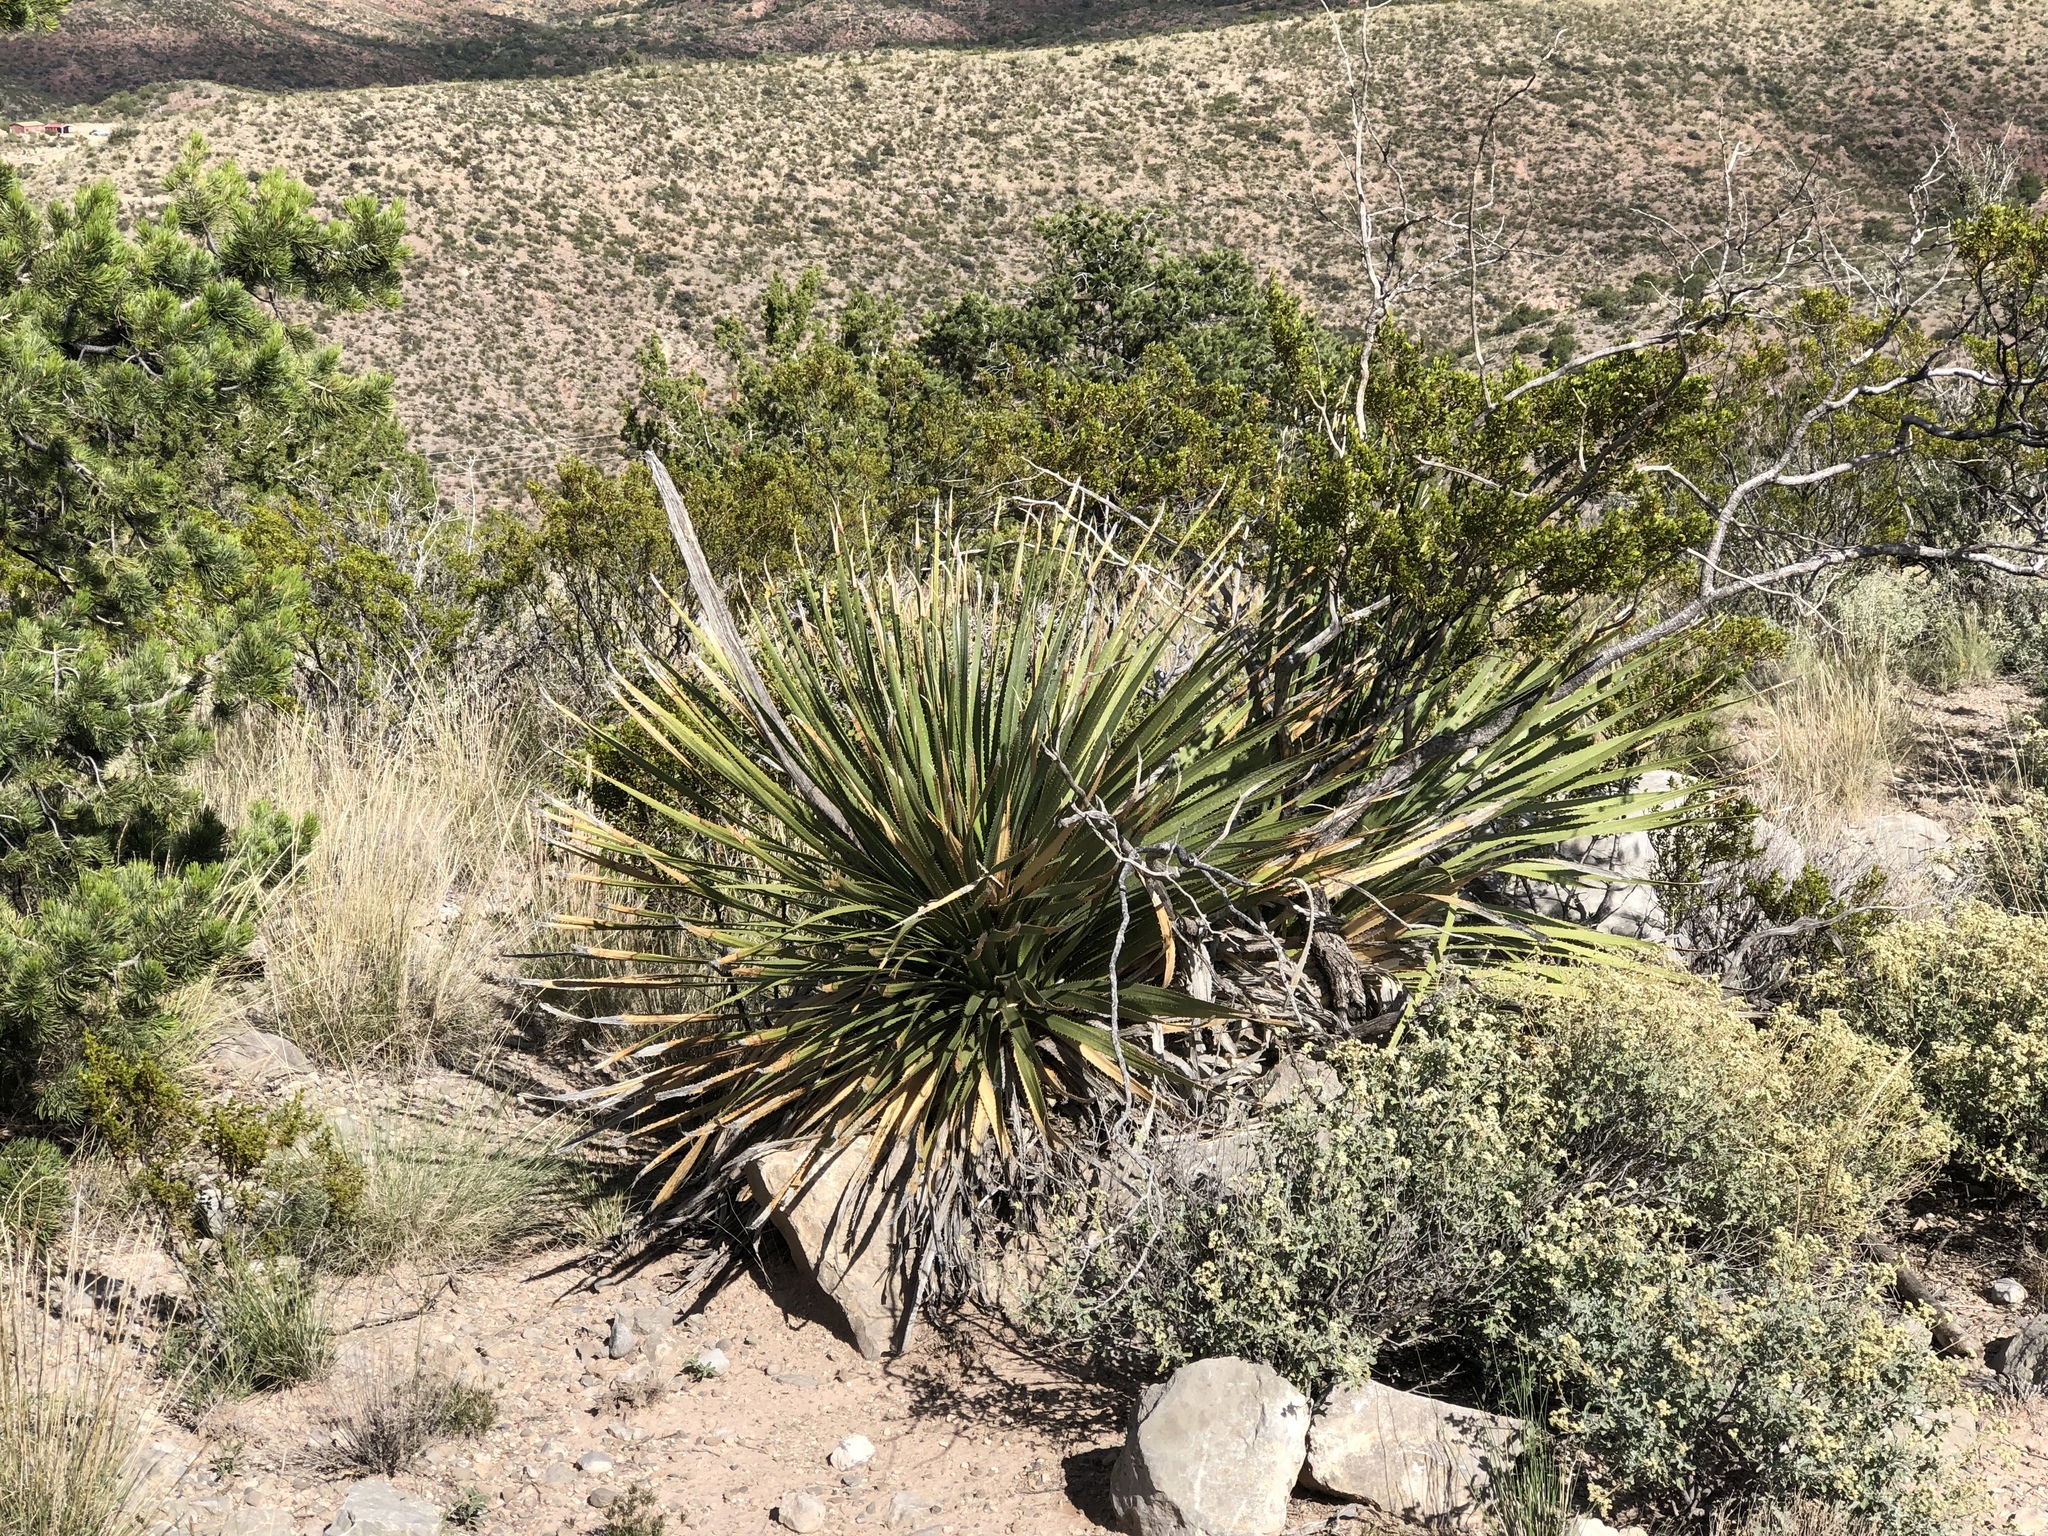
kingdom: Plantae
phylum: Tracheophyta
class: Liliopsida
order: Asparagales
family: Asparagaceae
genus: Dasylirion
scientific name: Dasylirion wheeleri
